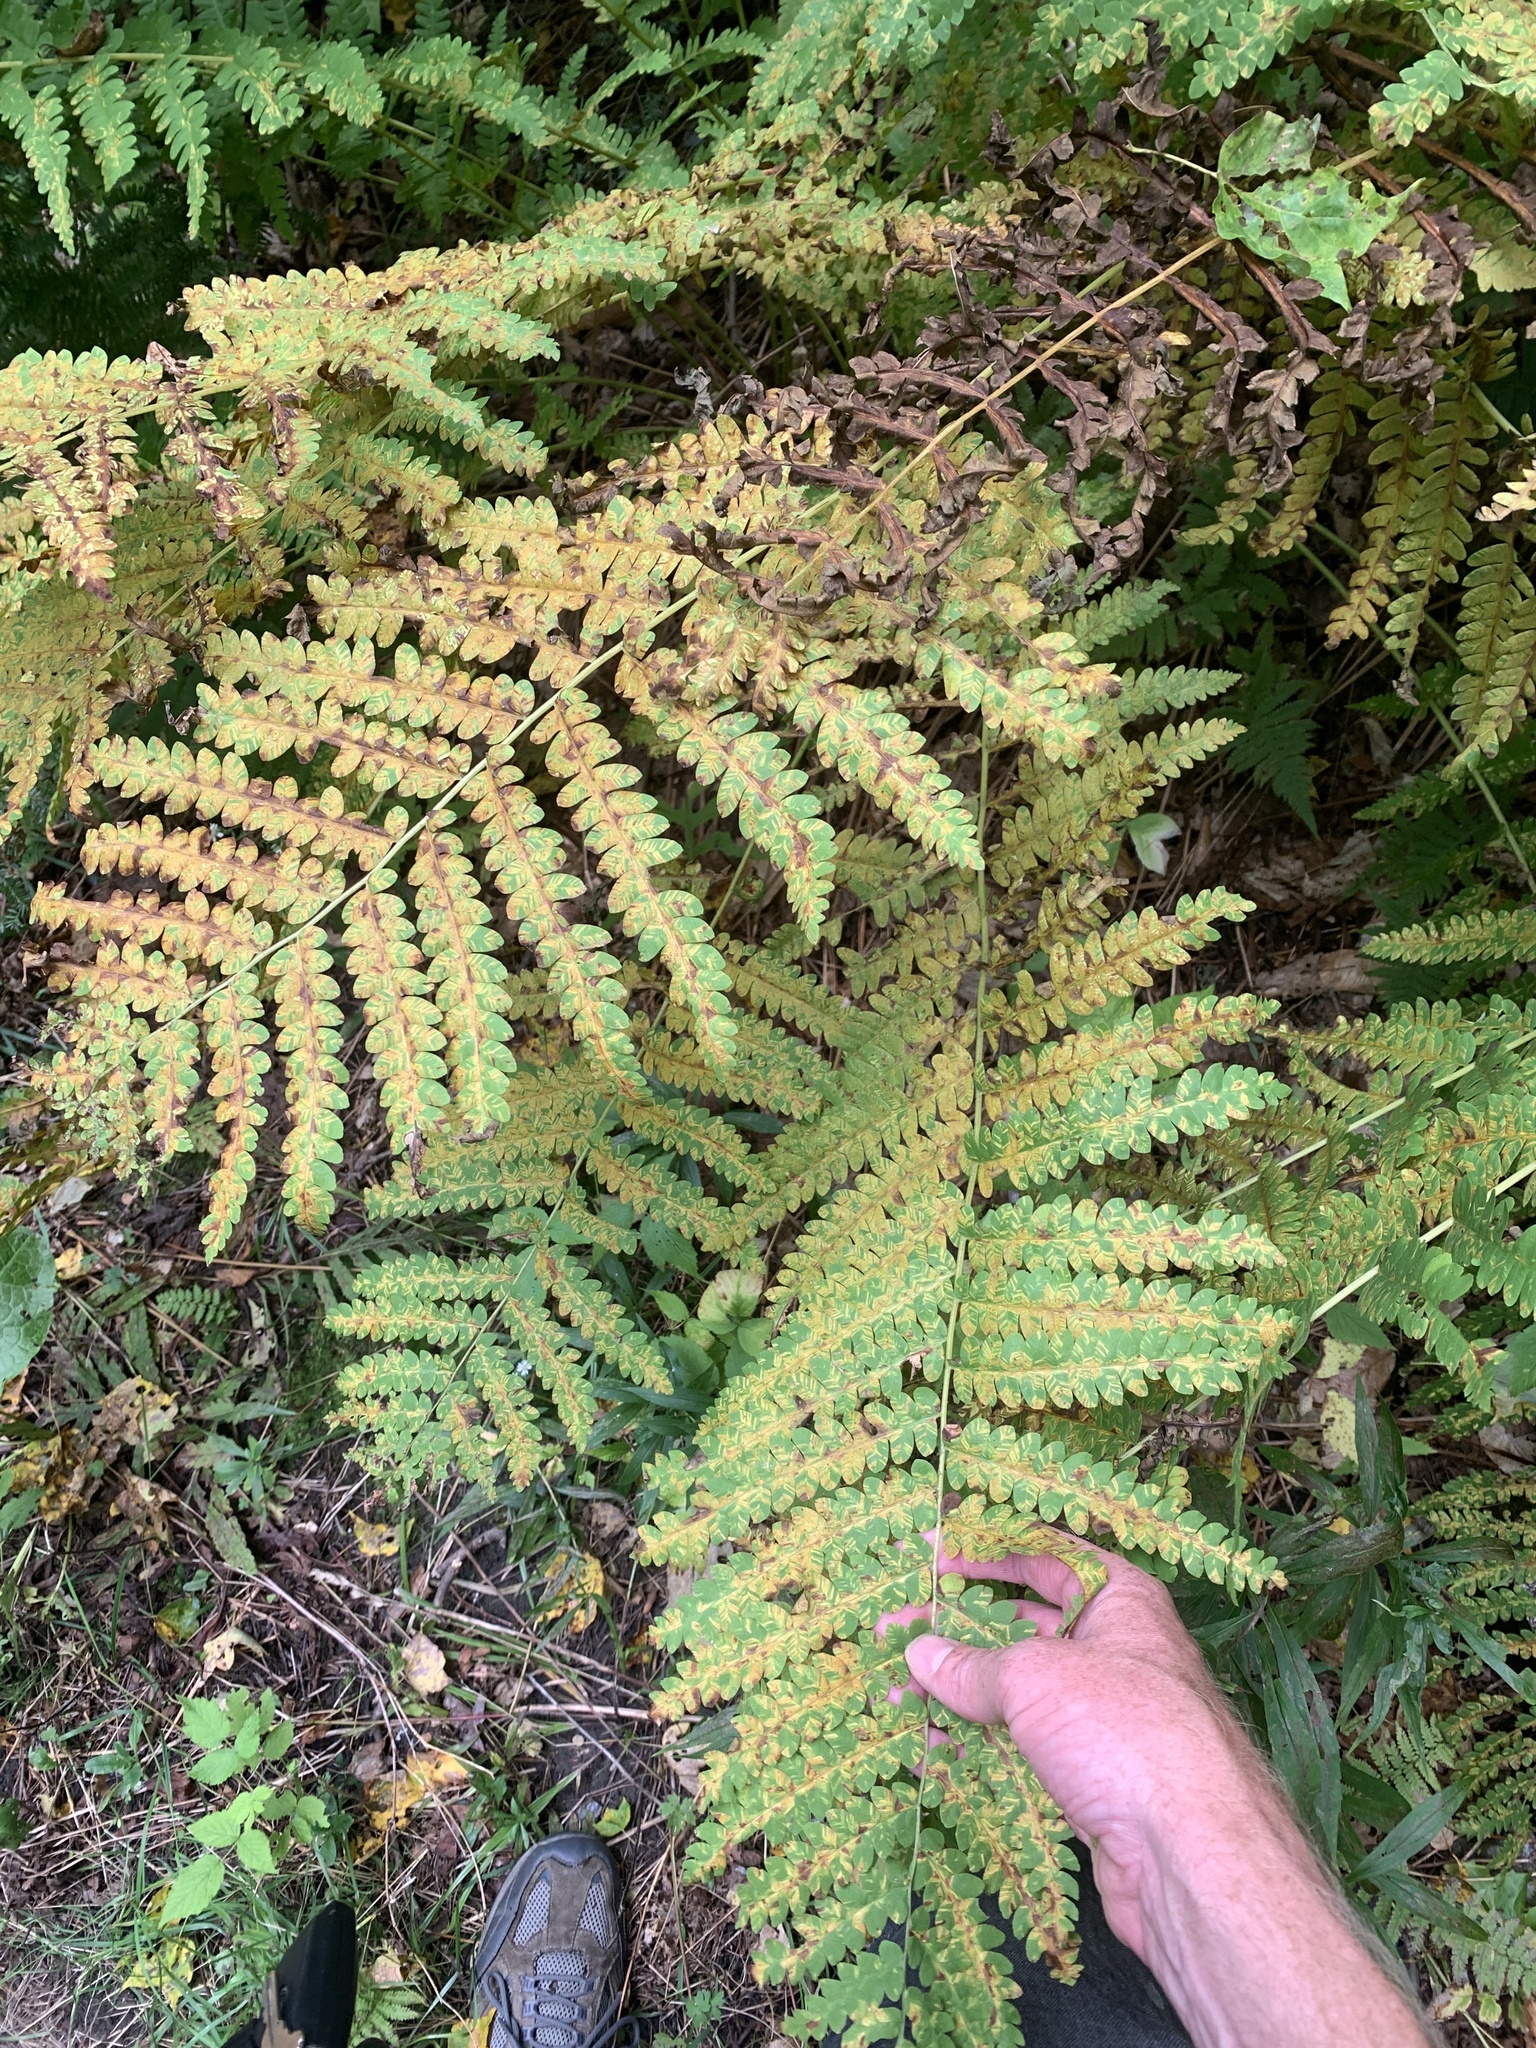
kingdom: Plantae
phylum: Tracheophyta
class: Polypodiopsida
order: Osmundales
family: Osmundaceae
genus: Claytosmunda
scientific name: Claytosmunda claytoniana
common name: Clayton's fern
